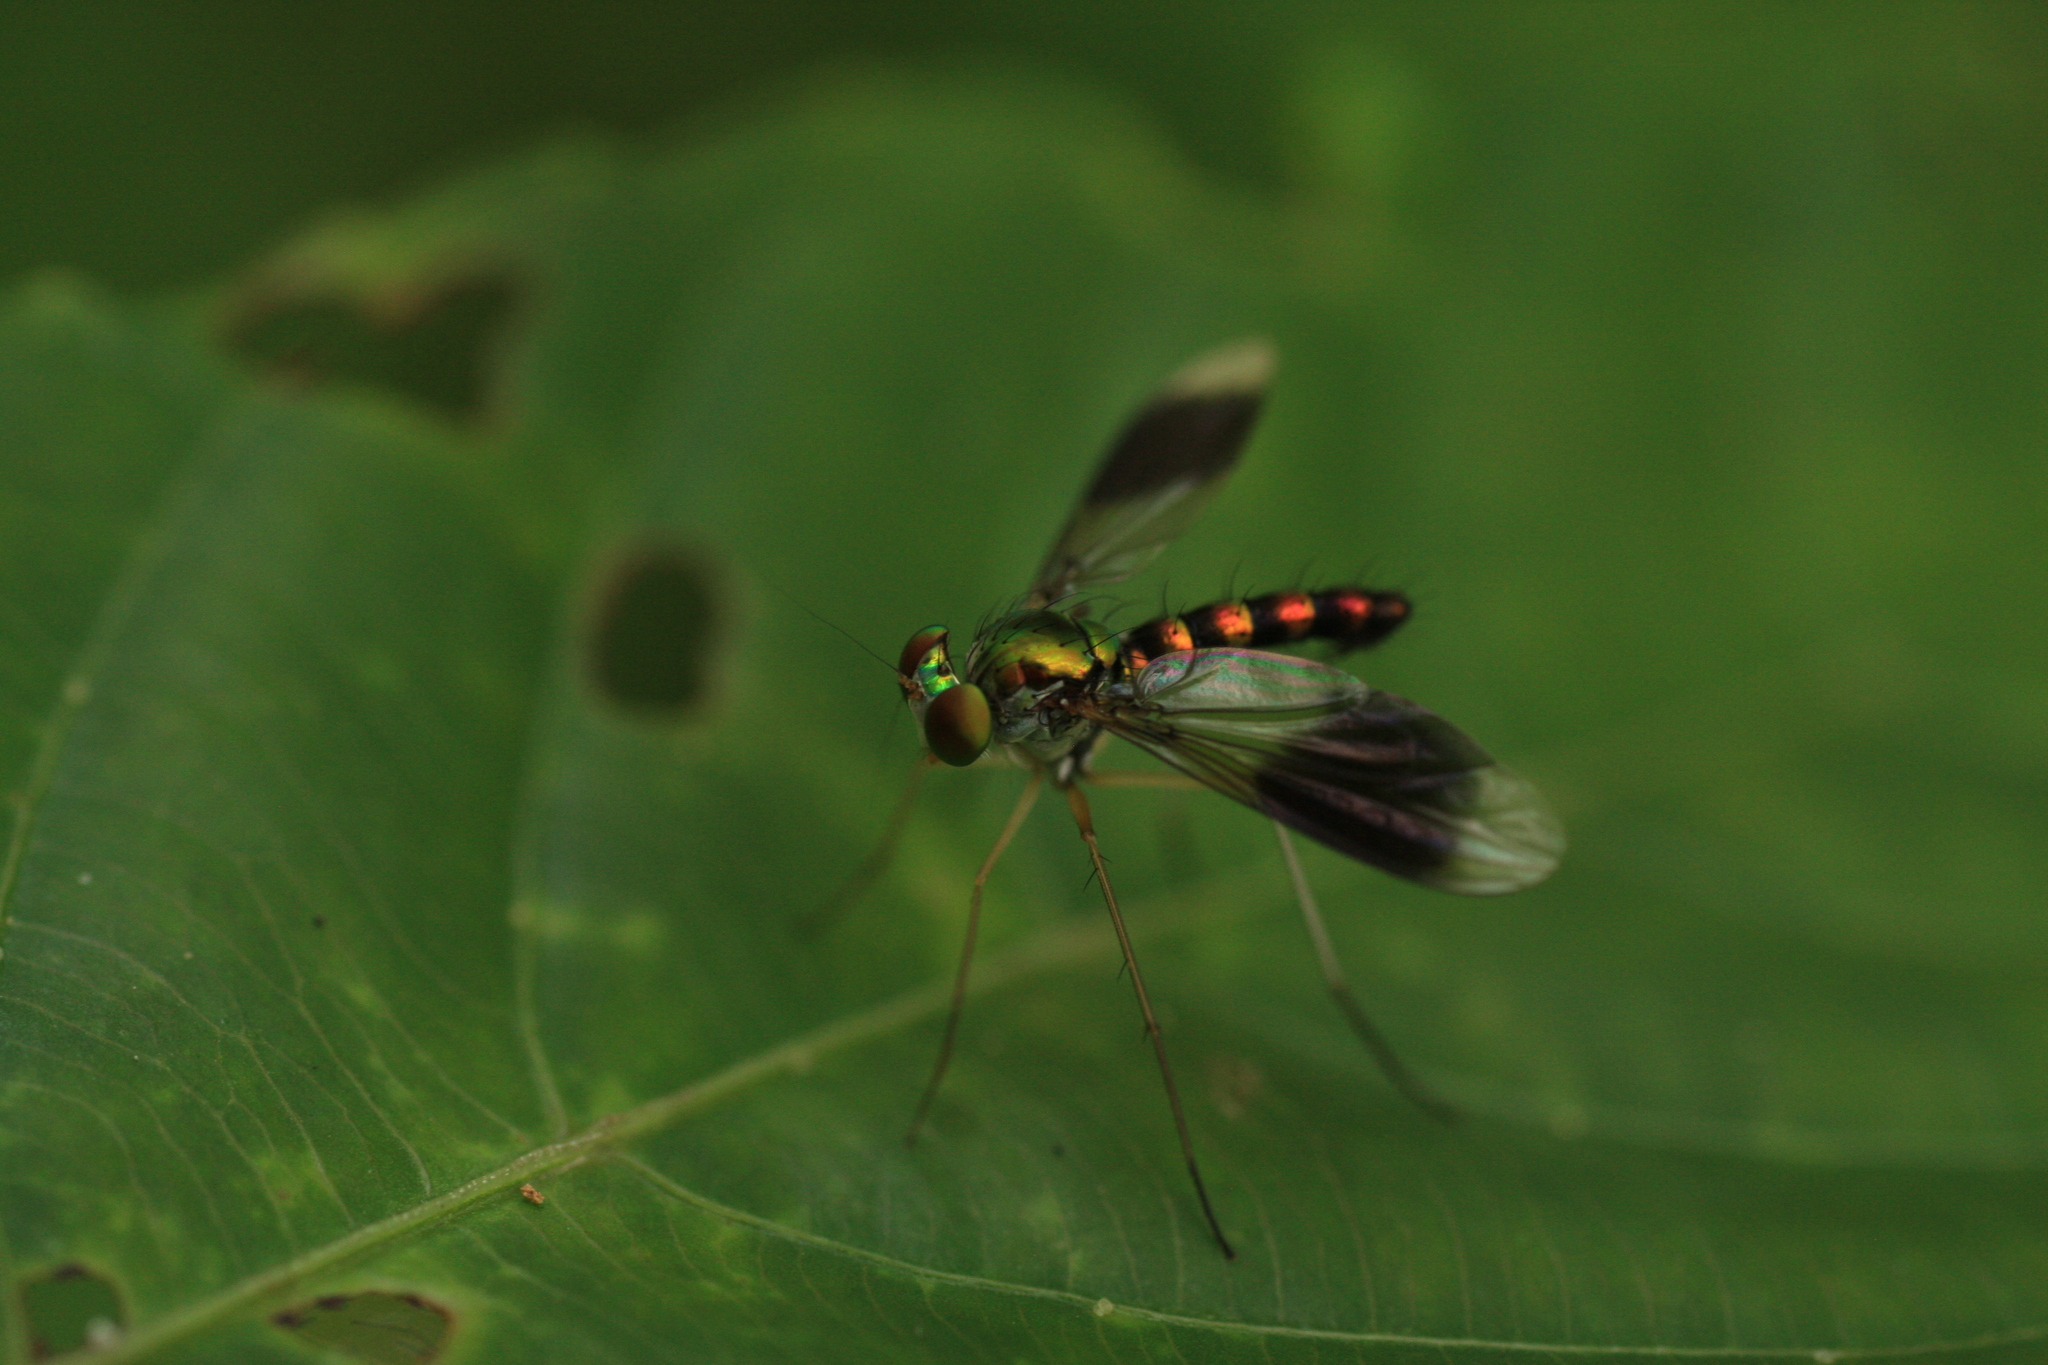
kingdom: Animalia
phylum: Arthropoda
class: Insecta
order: Diptera
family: Dolichopodidae
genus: Heteropsilopus
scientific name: Heteropsilopus vanus
